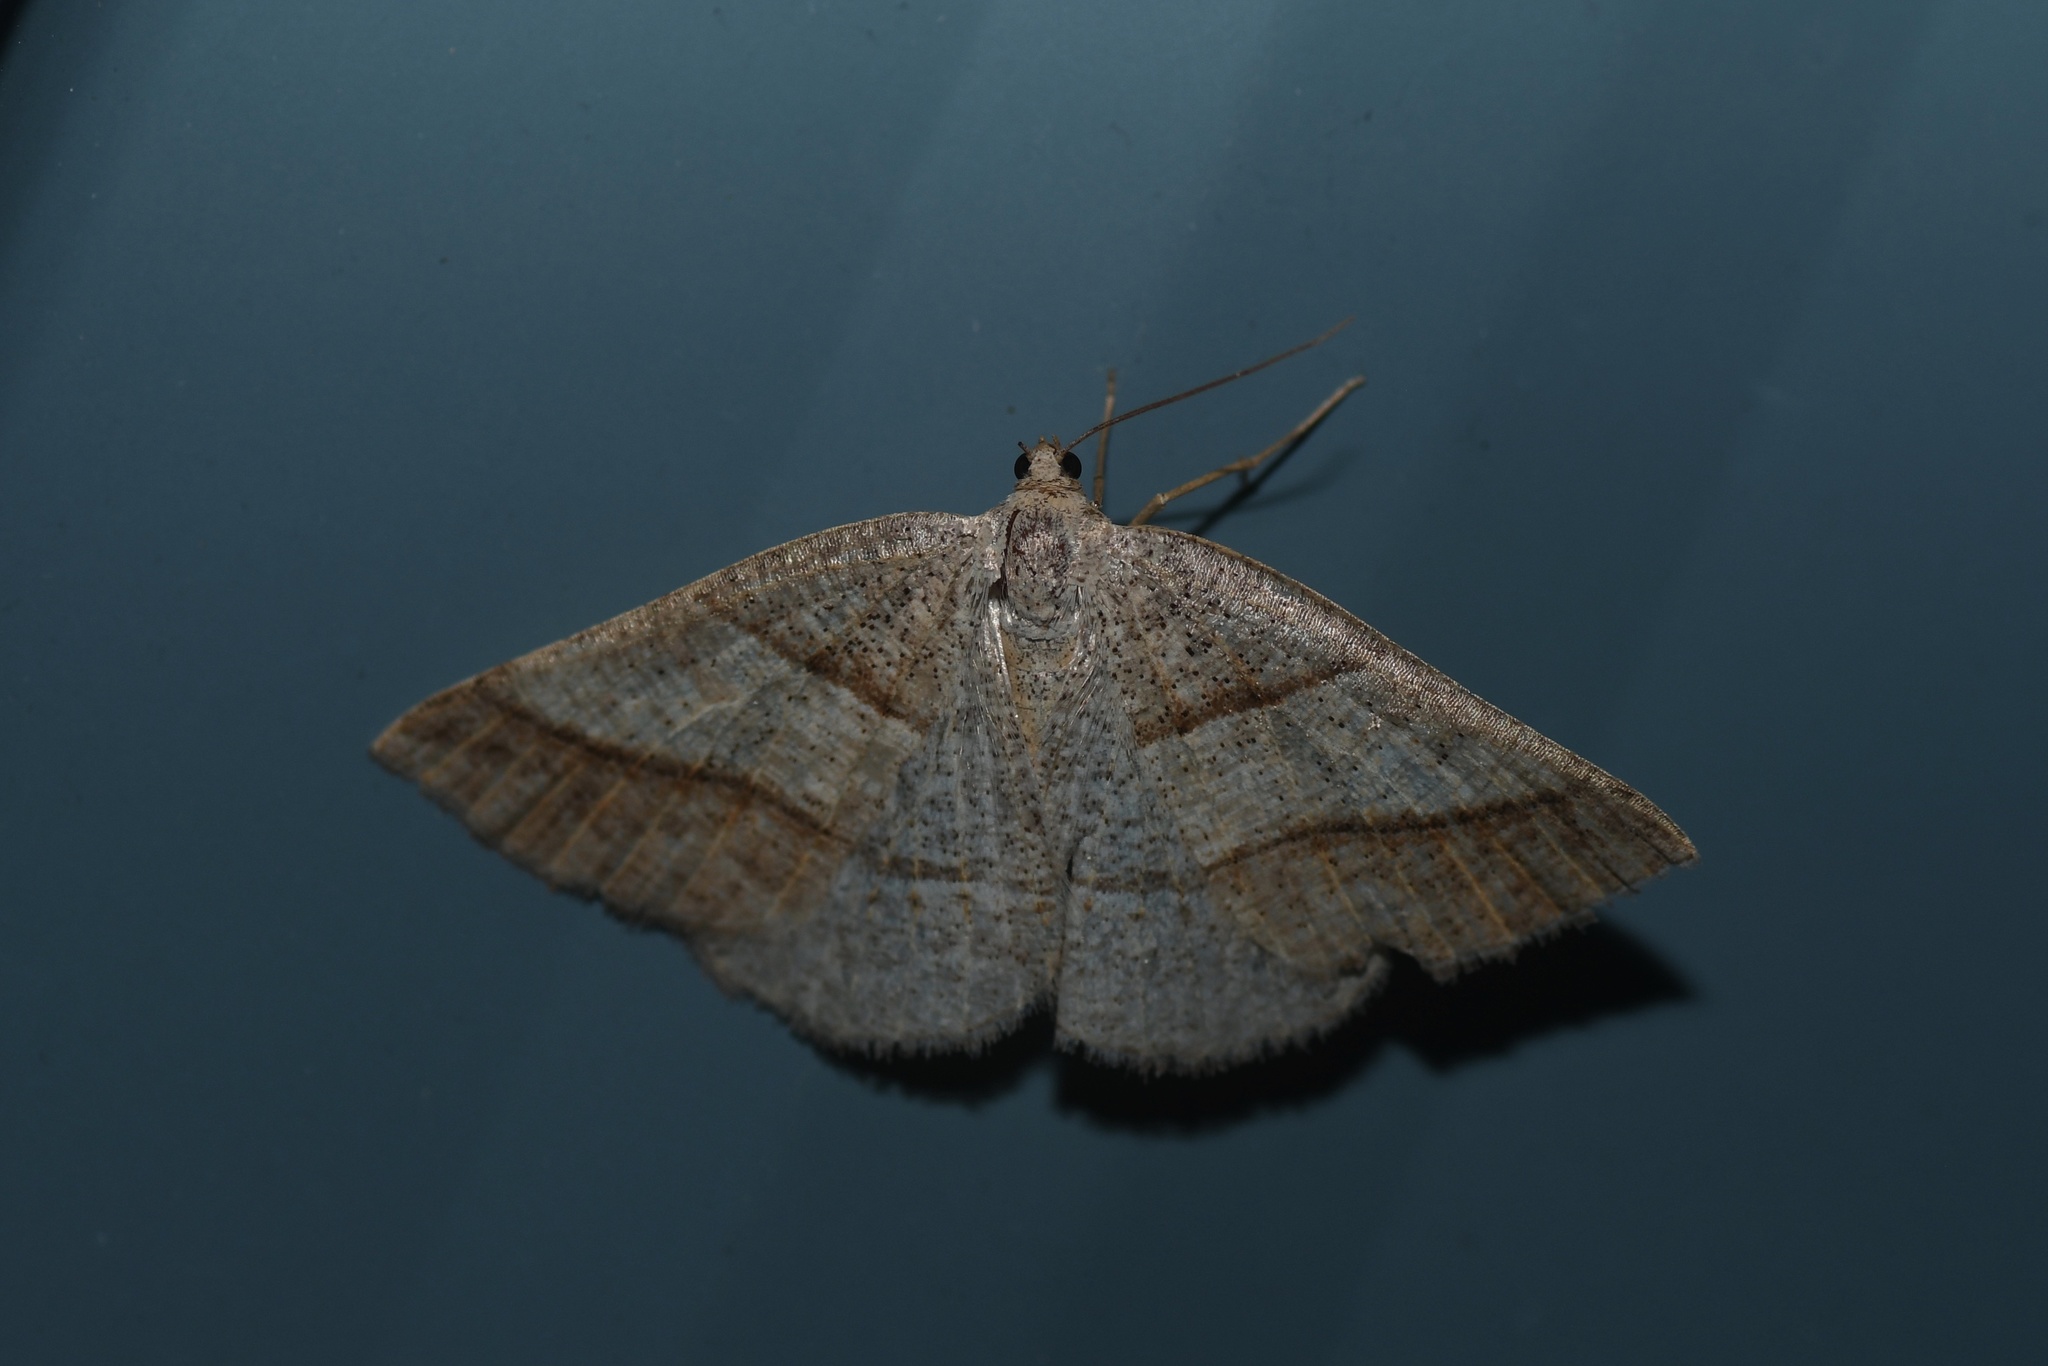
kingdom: Animalia
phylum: Arthropoda
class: Insecta
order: Lepidoptera
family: Pterophoridae
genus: Pterophorus
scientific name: Pterophorus Petrophora subaequaria
